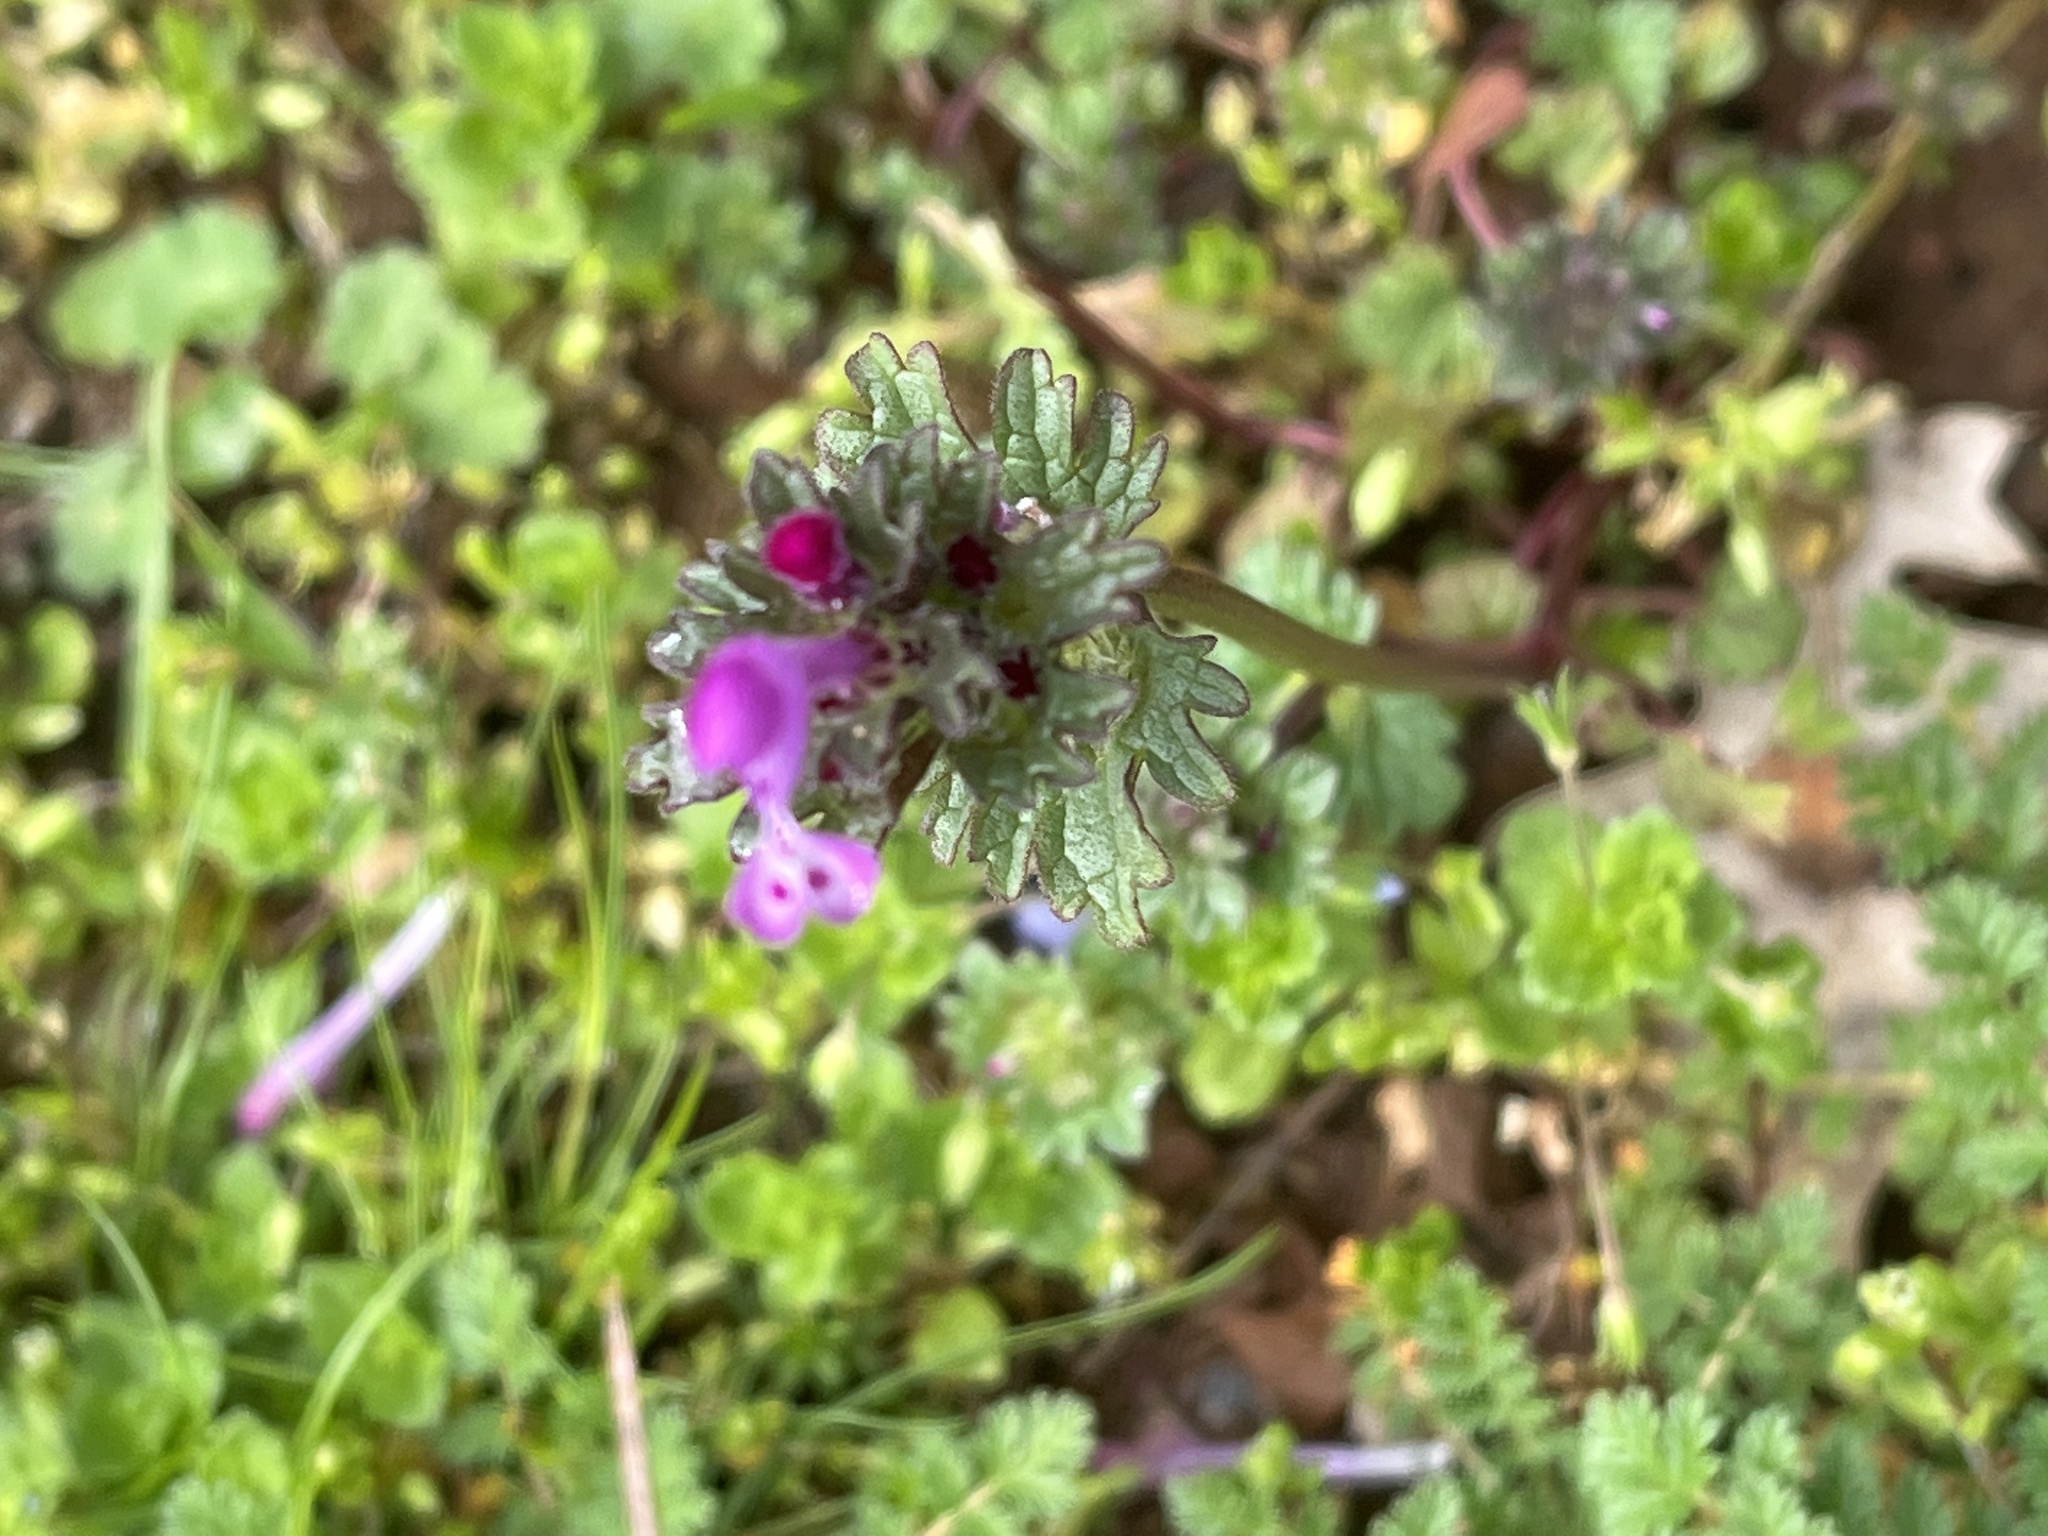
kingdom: Plantae
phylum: Tracheophyta
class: Magnoliopsida
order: Lamiales
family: Lamiaceae
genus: Lamium
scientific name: Lamium amplexicaule
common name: Henbit dead-nettle
